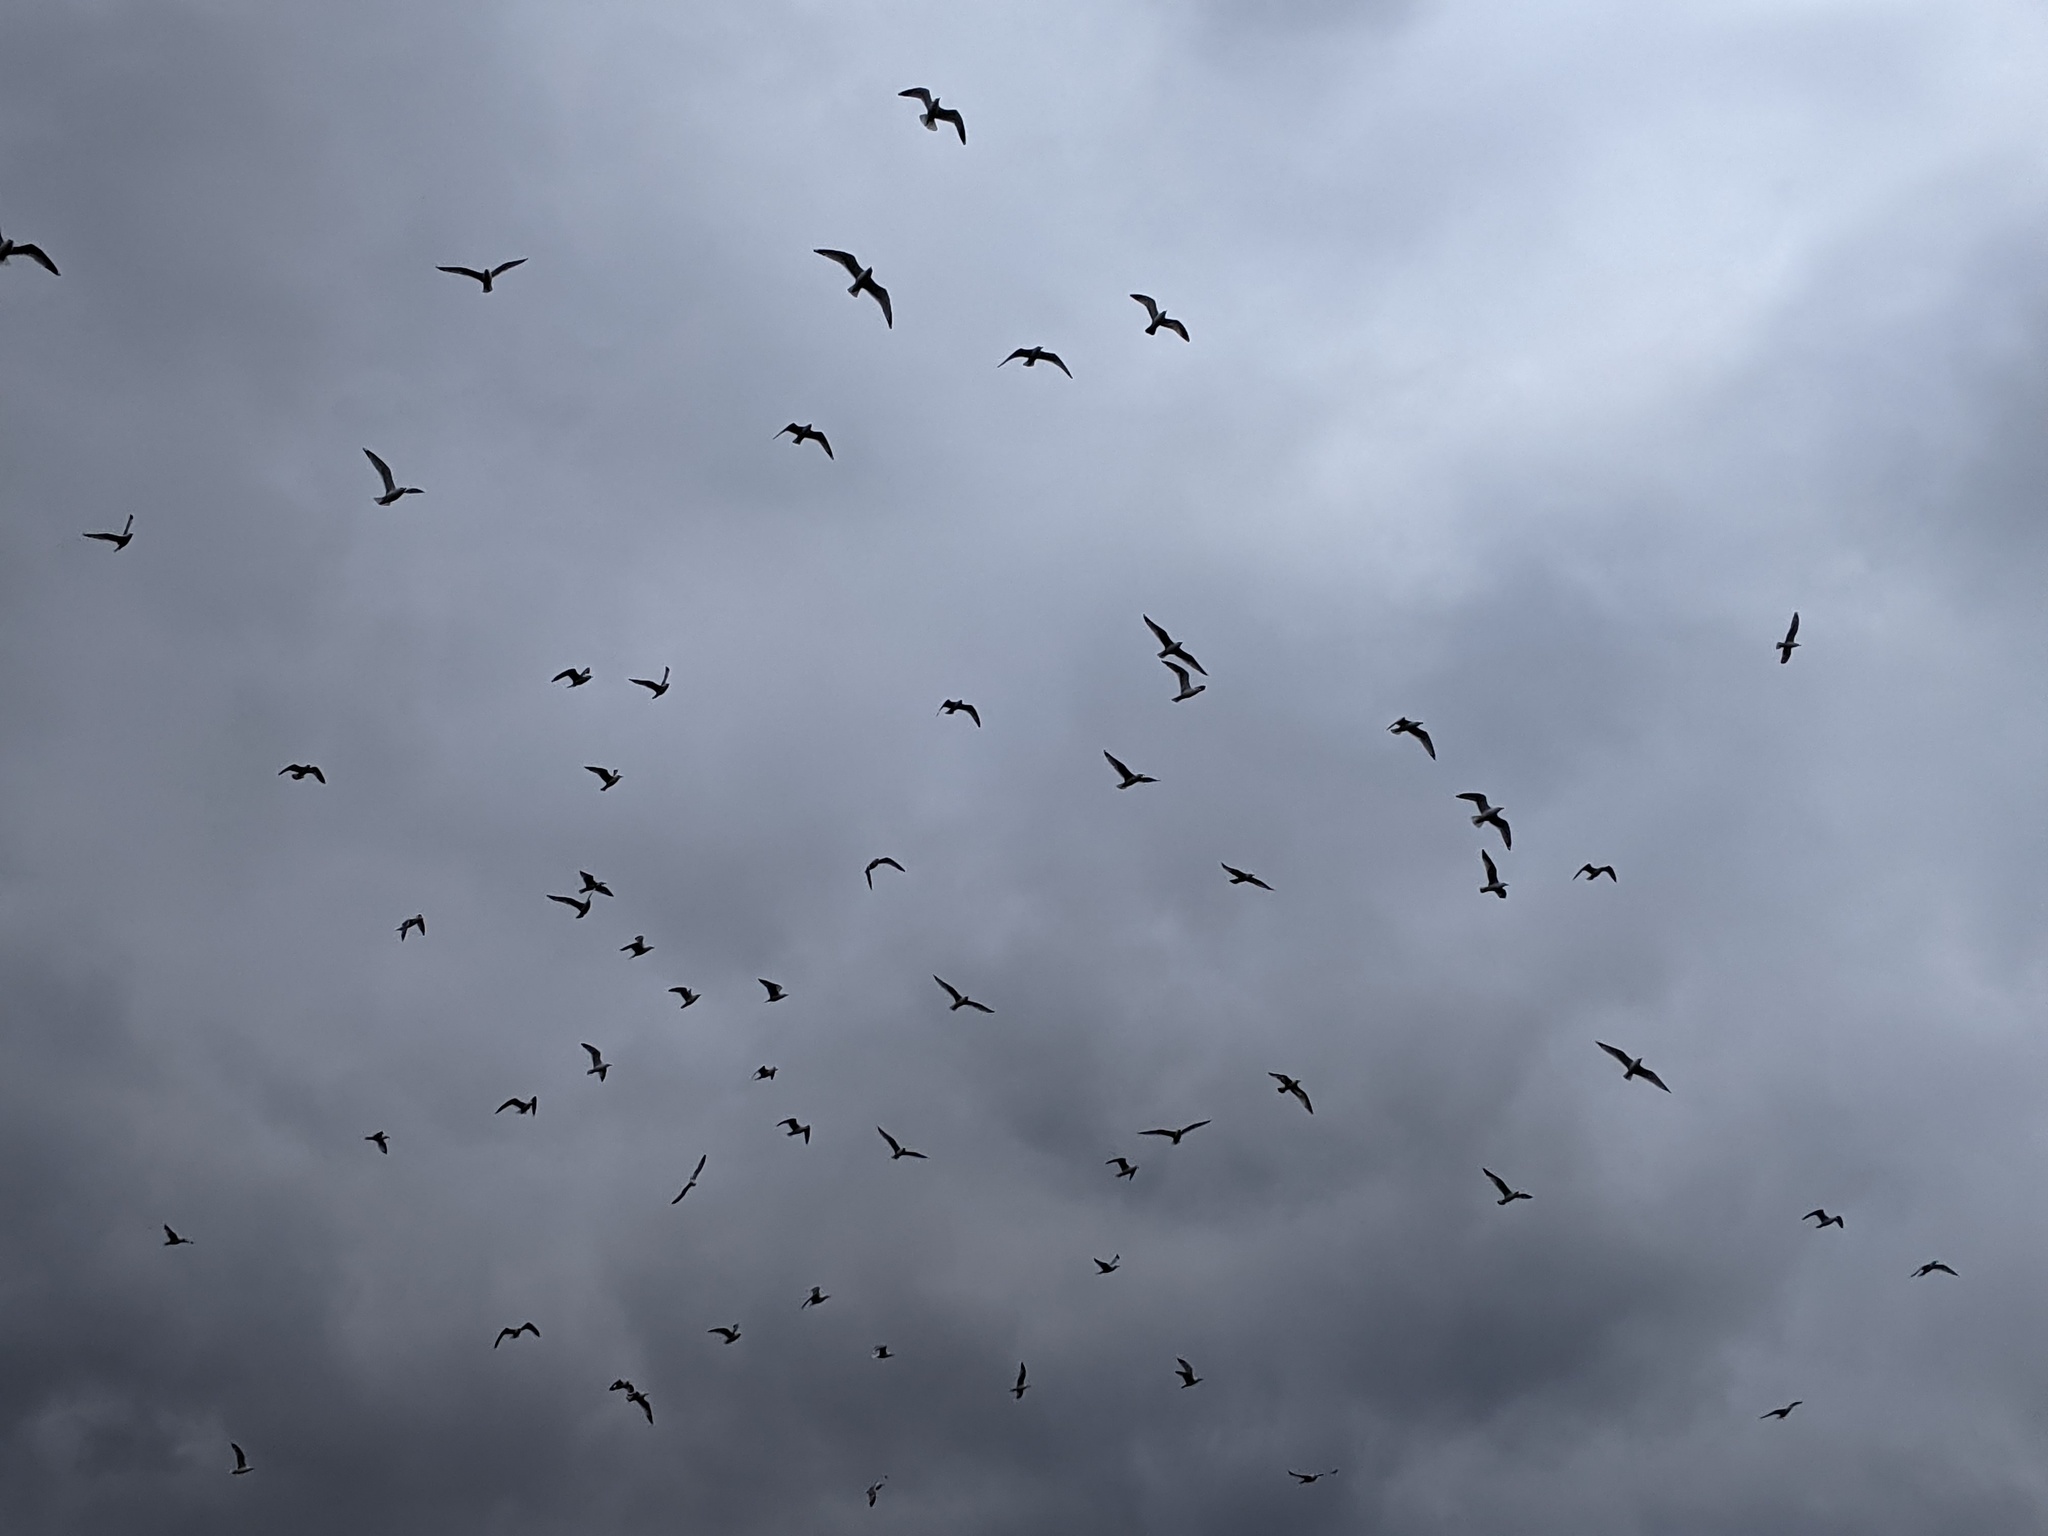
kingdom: Animalia
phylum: Chordata
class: Aves
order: Charadriiformes
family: Laridae
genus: Larus
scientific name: Larus delawarensis
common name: Ring-billed gull
